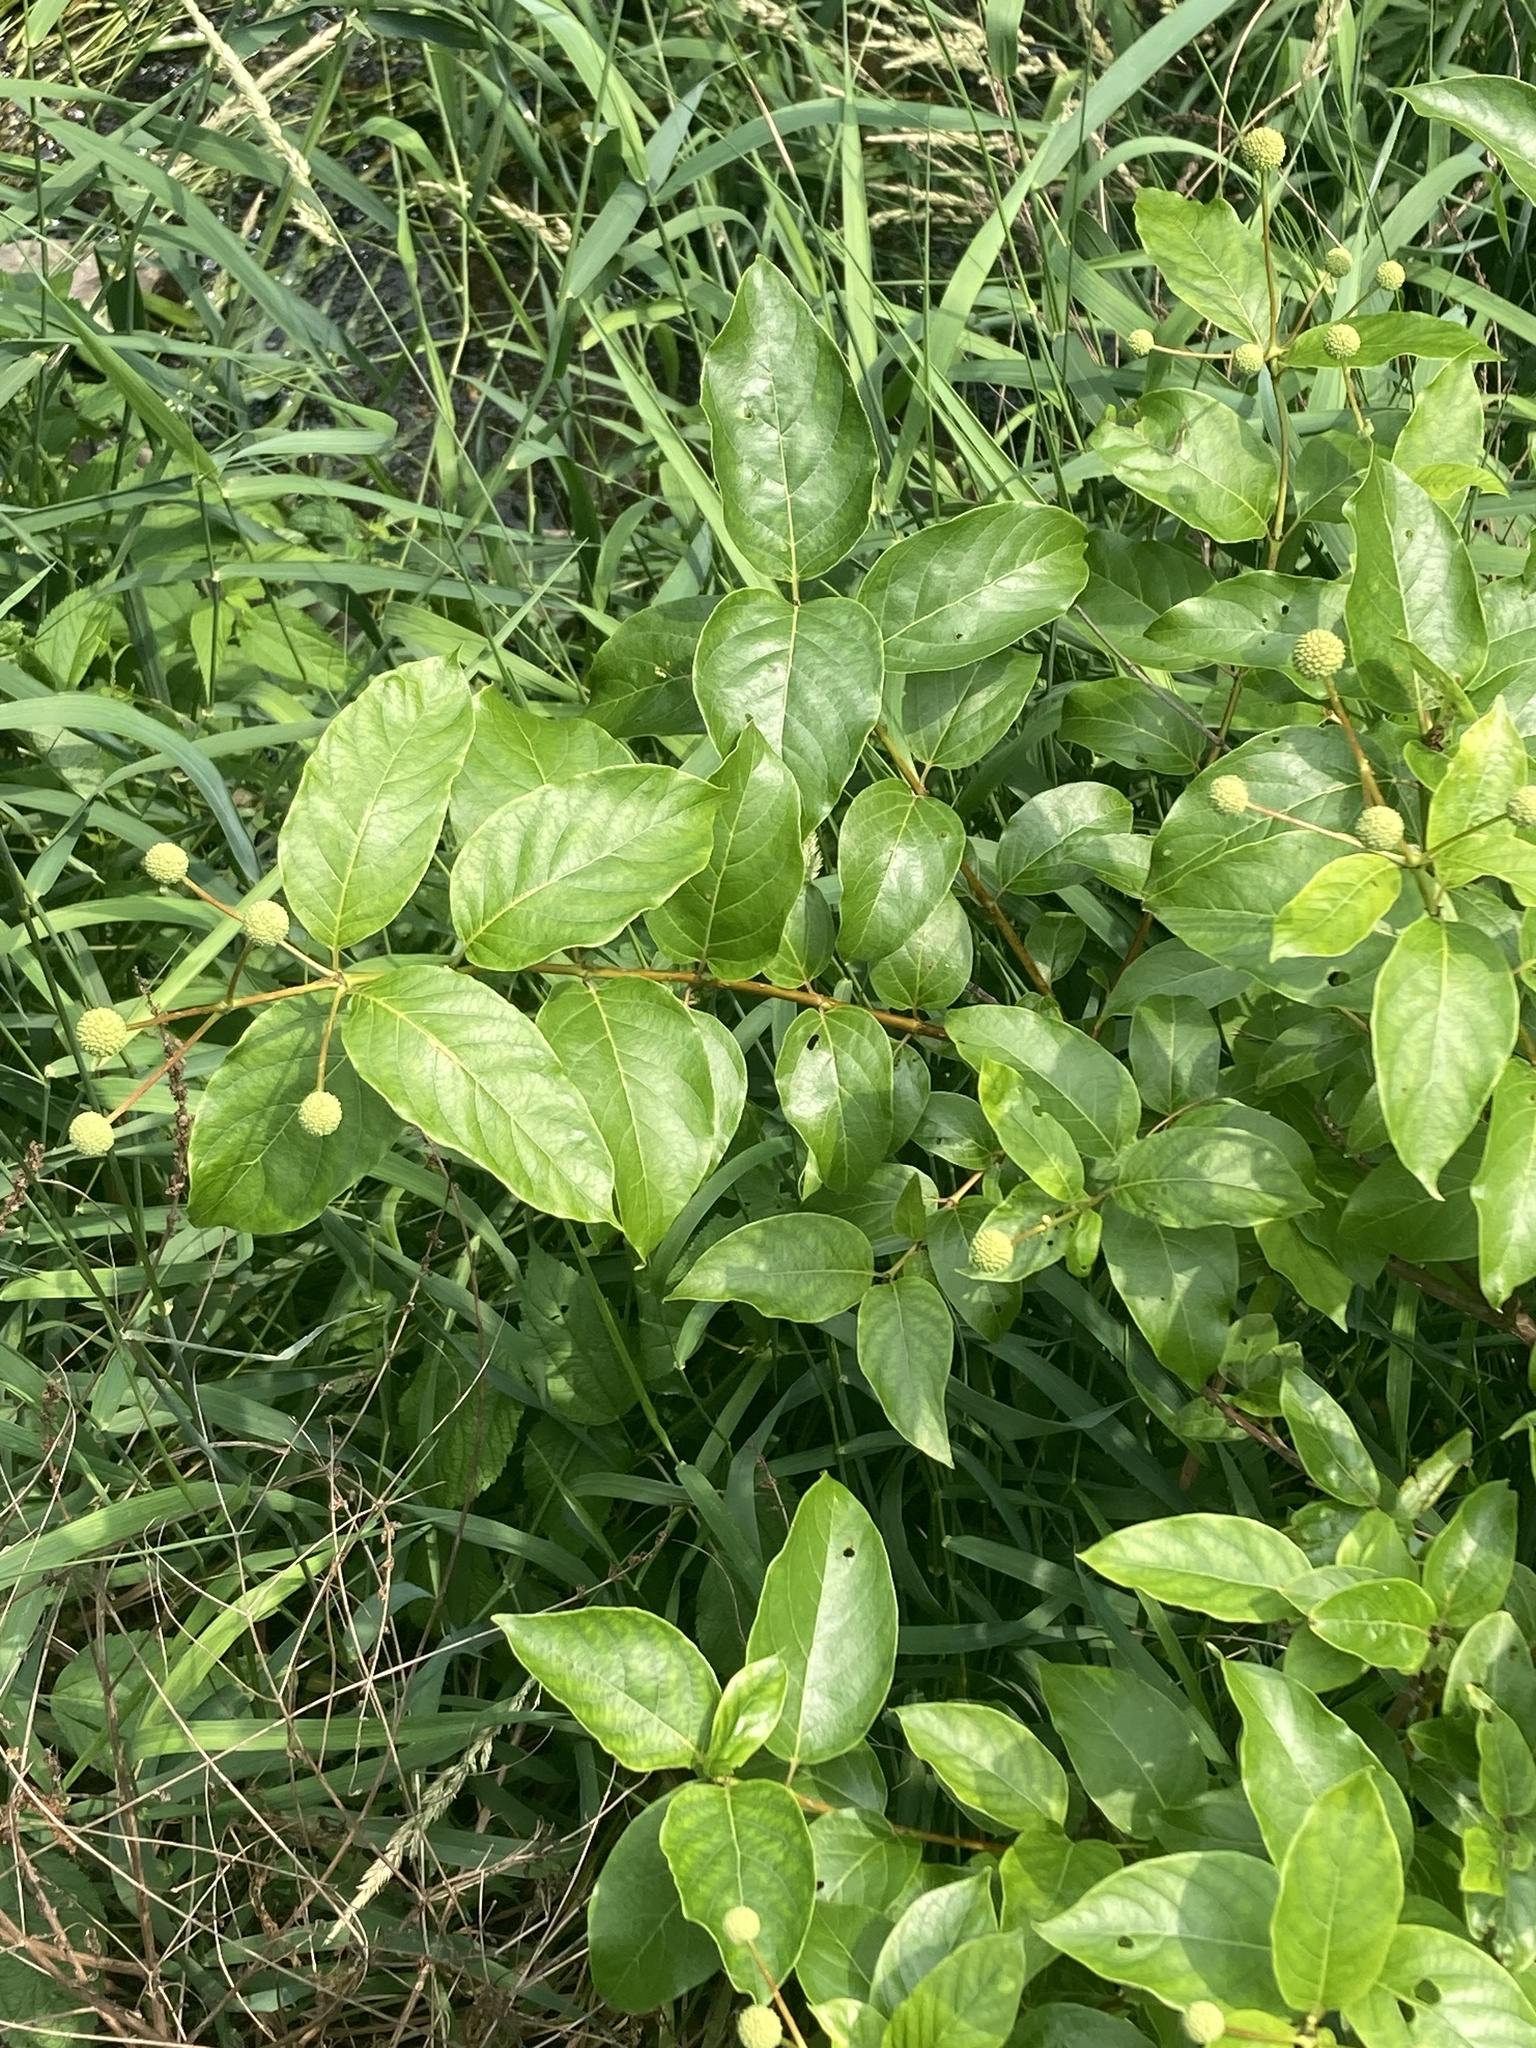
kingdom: Plantae
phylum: Tracheophyta
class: Magnoliopsida
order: Gentianales
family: Rubiaceae
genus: Cephalanthus
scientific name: Cephalanthus occidentalis
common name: Button-willow
